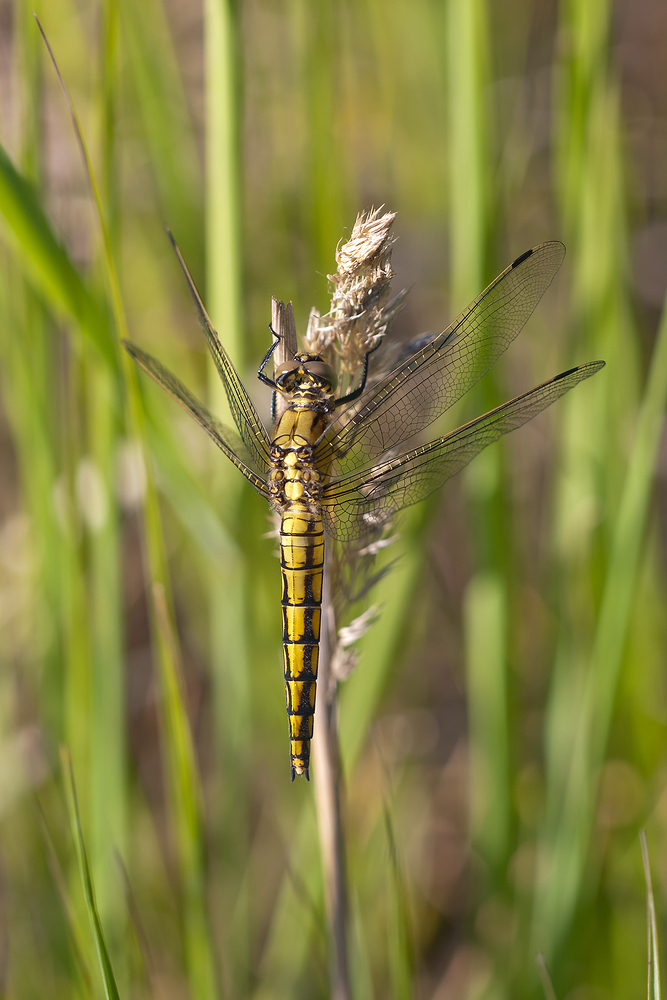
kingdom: Animalia
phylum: Arthropoda
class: Insecta
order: Odonata
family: Libellulidae
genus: Orthetrum
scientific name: Orthetrum cancellatum
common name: Black-tailed skimmer
